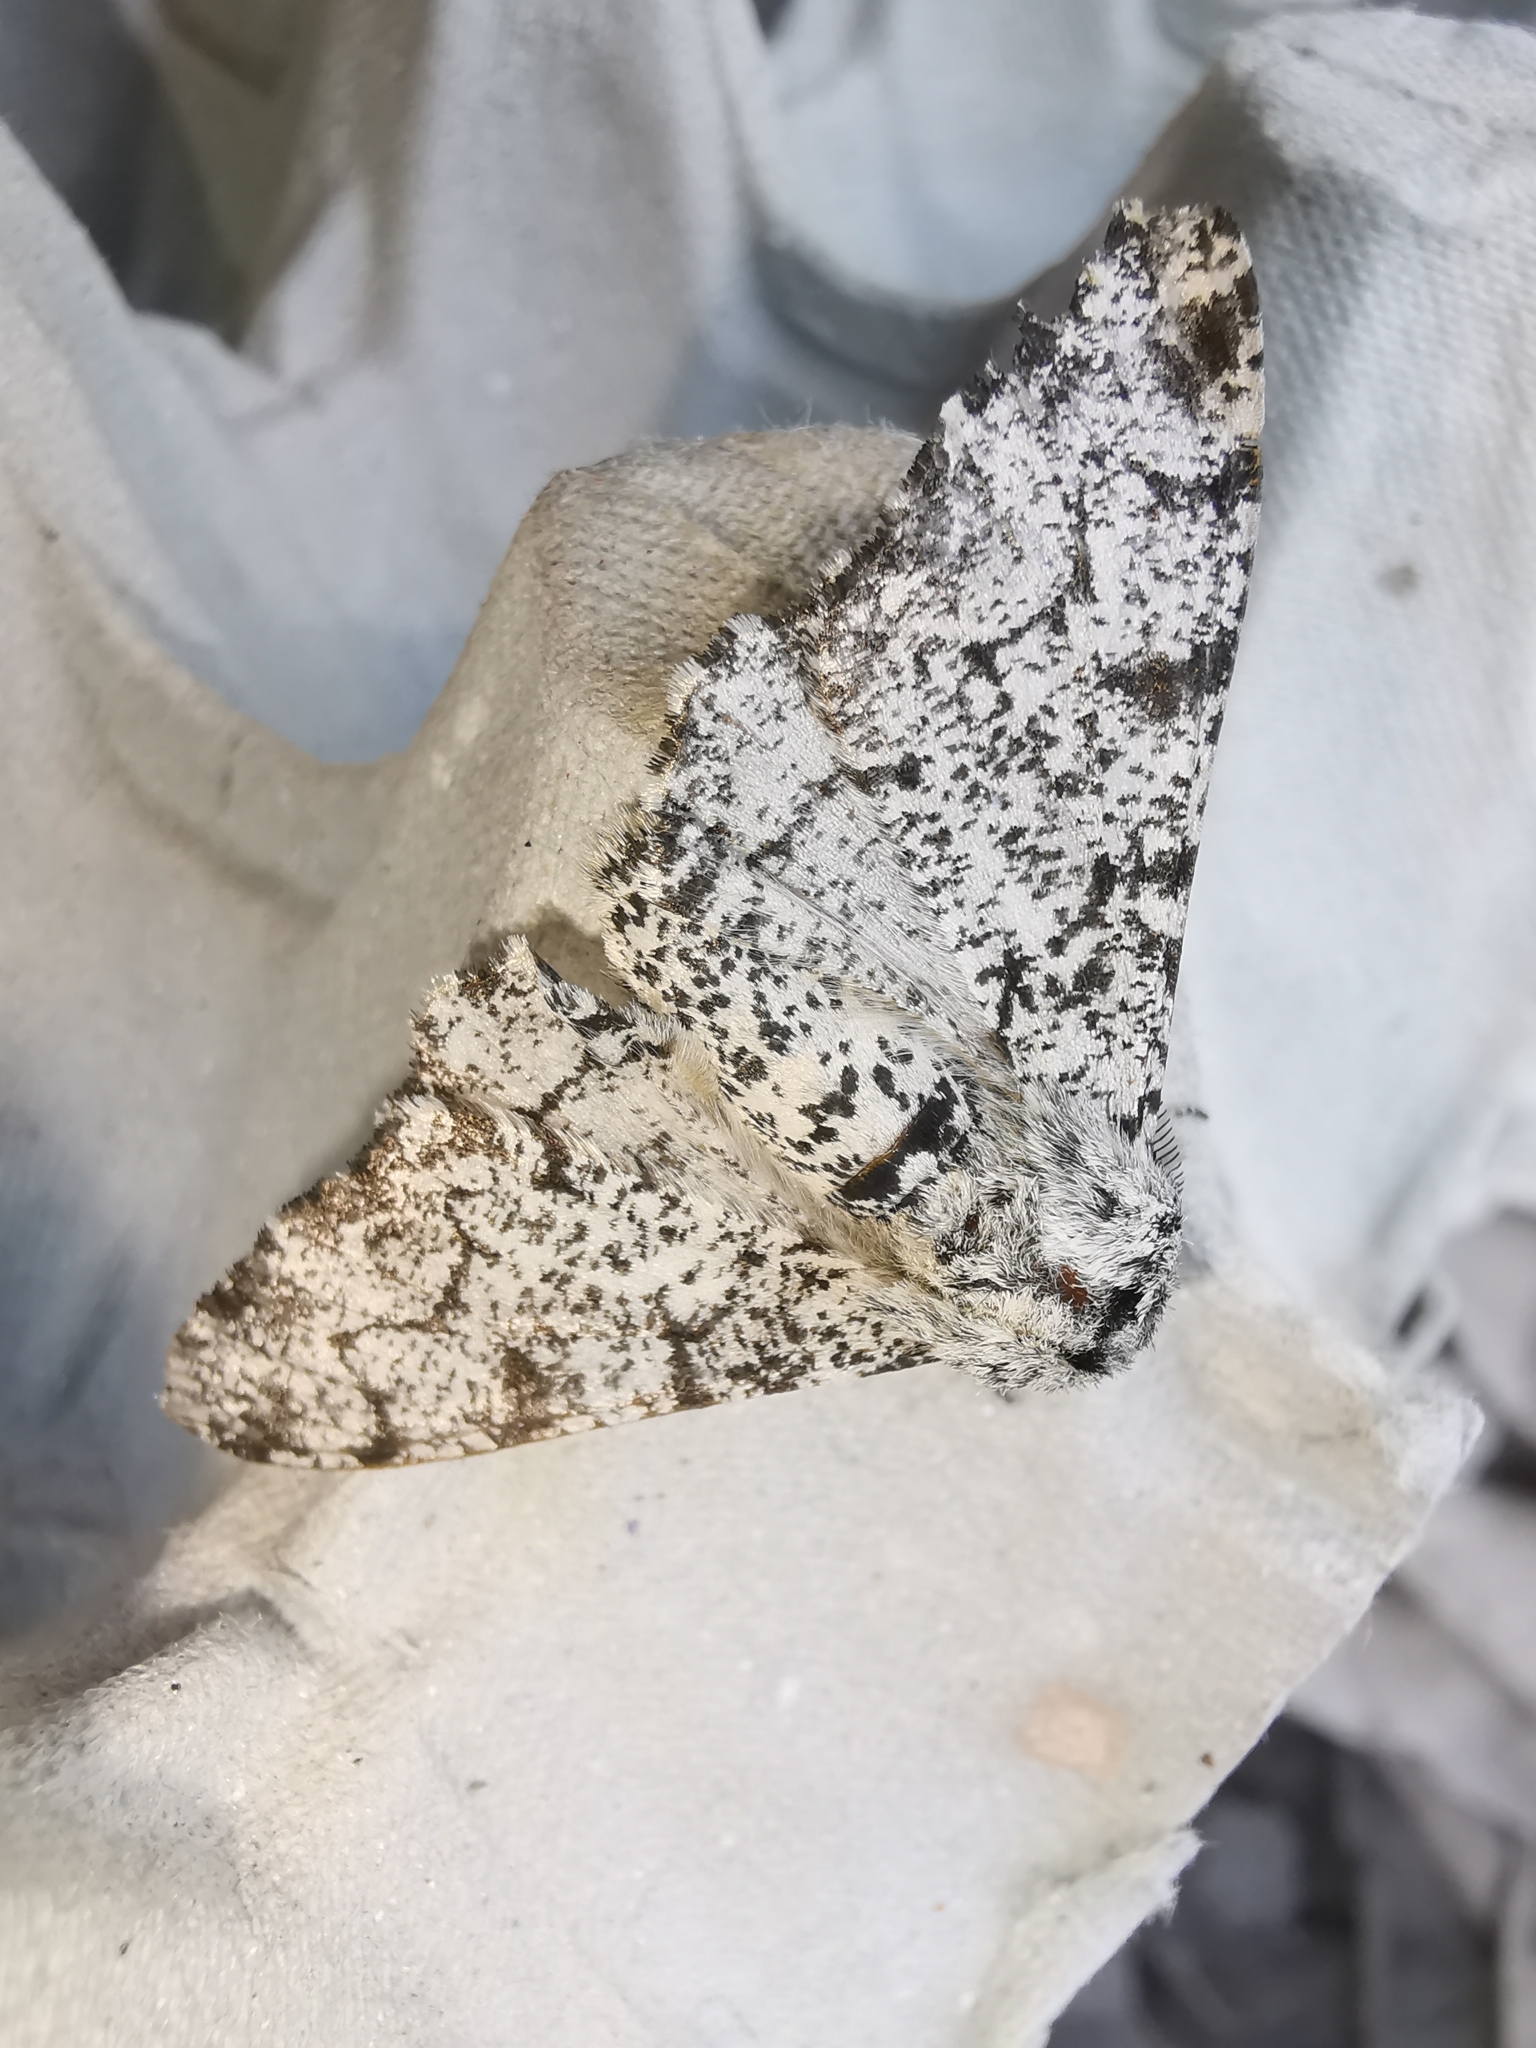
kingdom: Animalia
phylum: Arthropoda
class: Insecta
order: Lepidoptera
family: Geometridae
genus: Biston
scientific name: Biston betularia
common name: Peppered moth
